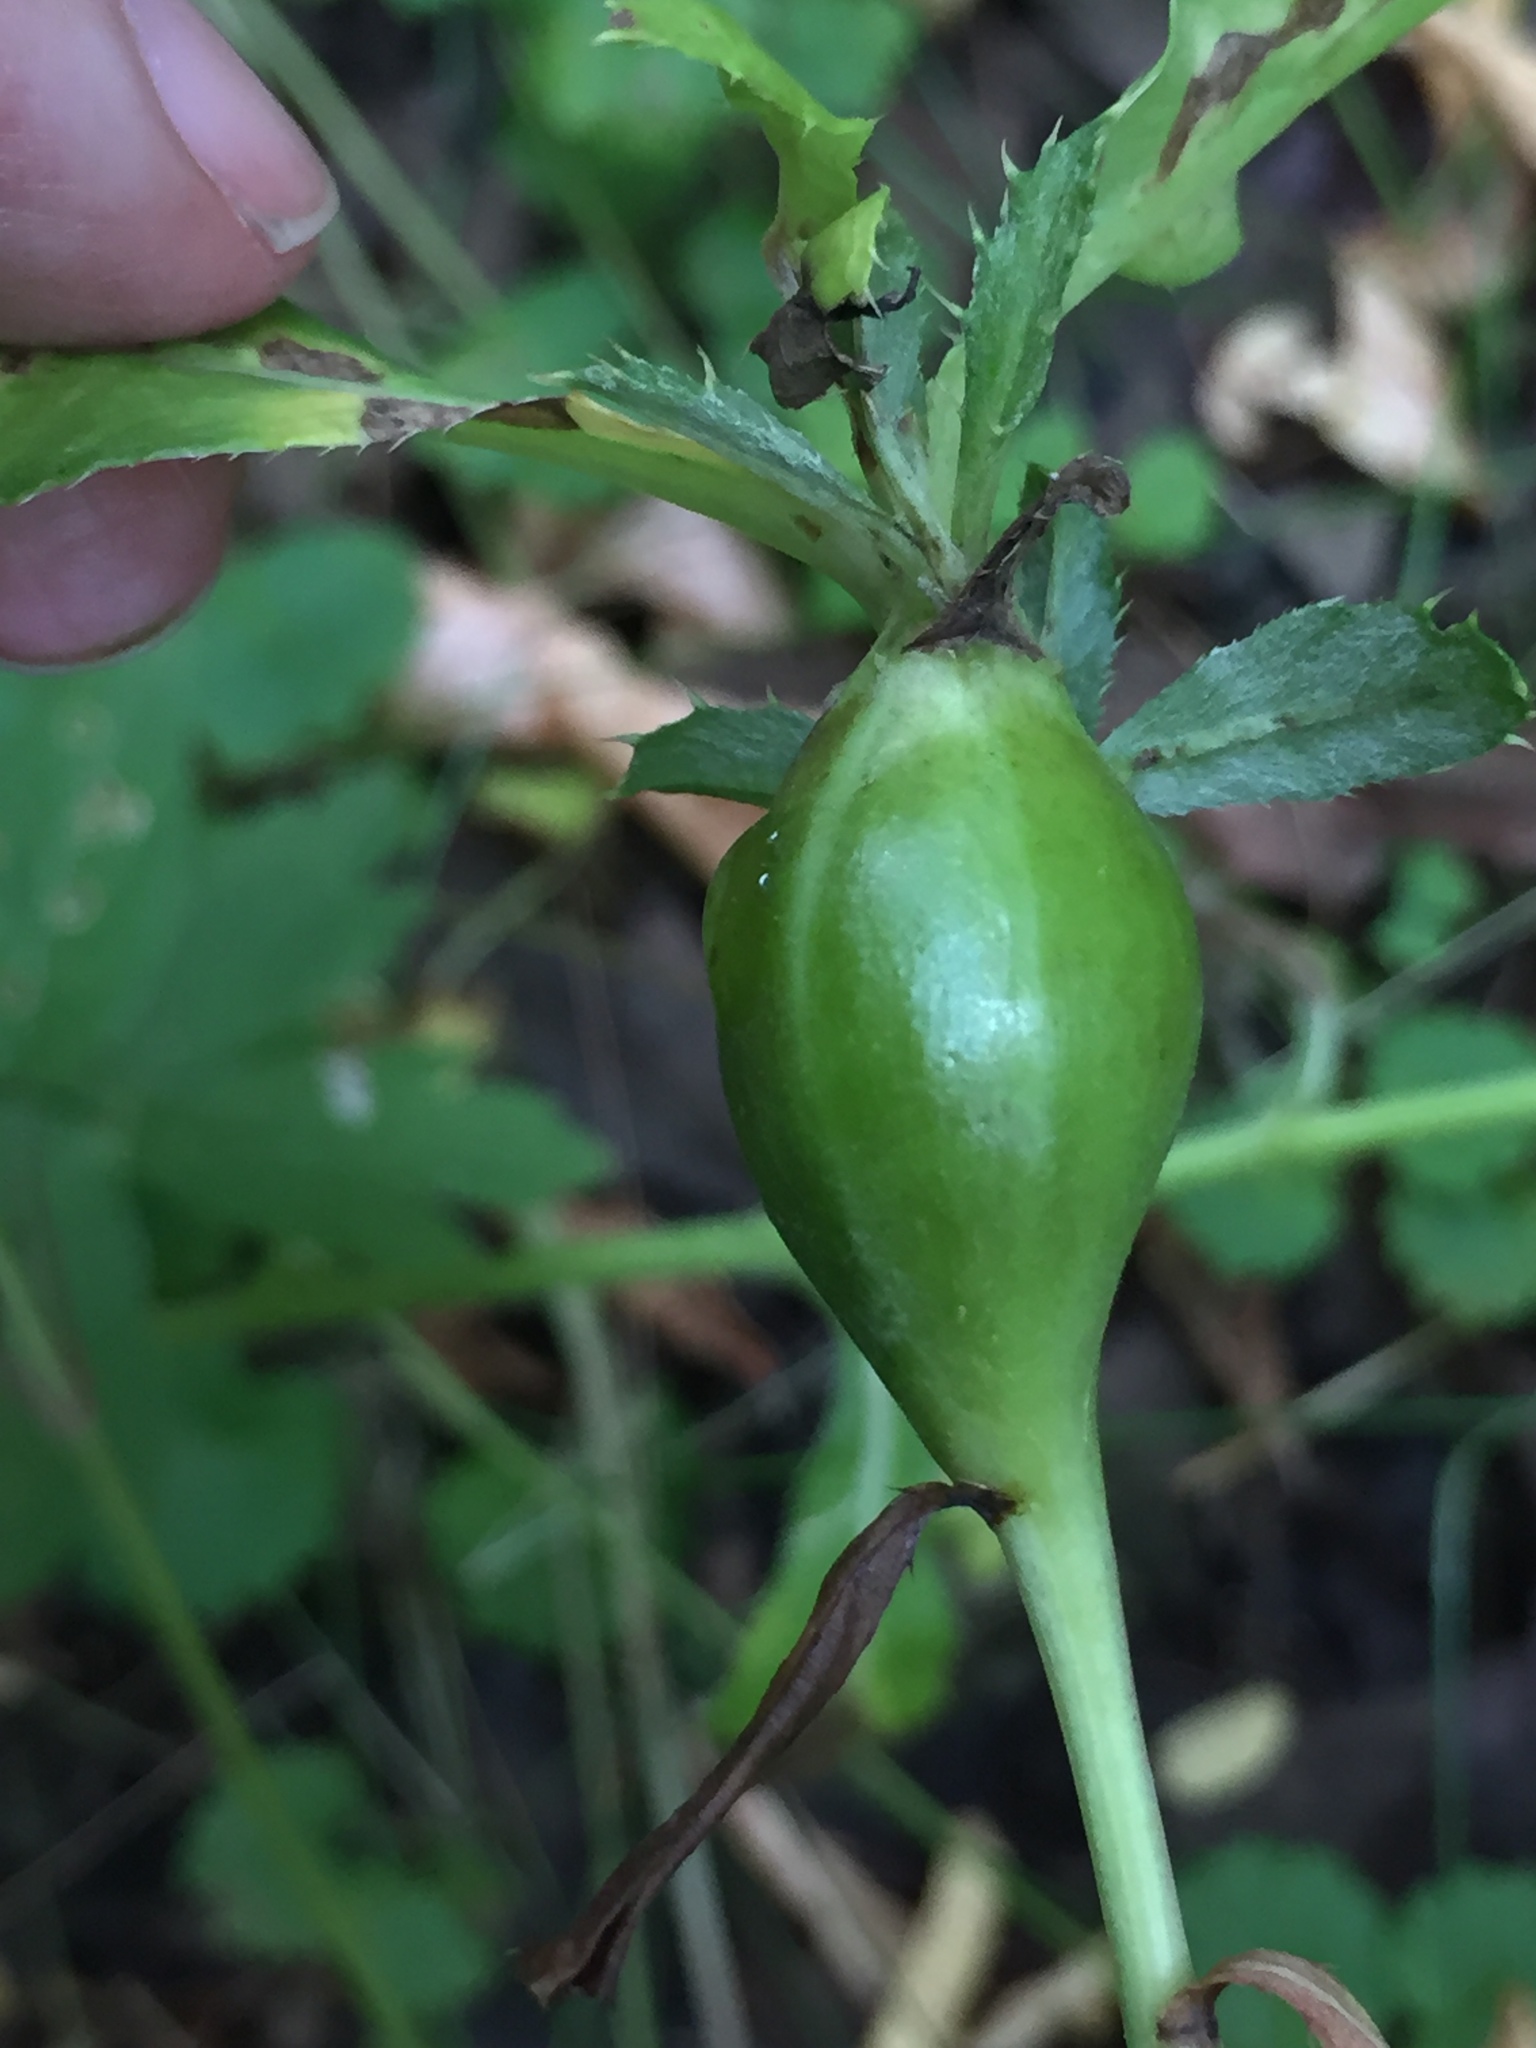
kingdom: Animalia
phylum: Arthropoda
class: Insecta
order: Diptera
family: Tephritidae
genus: Urophora
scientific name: Urophora cardui
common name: Fruit fly
